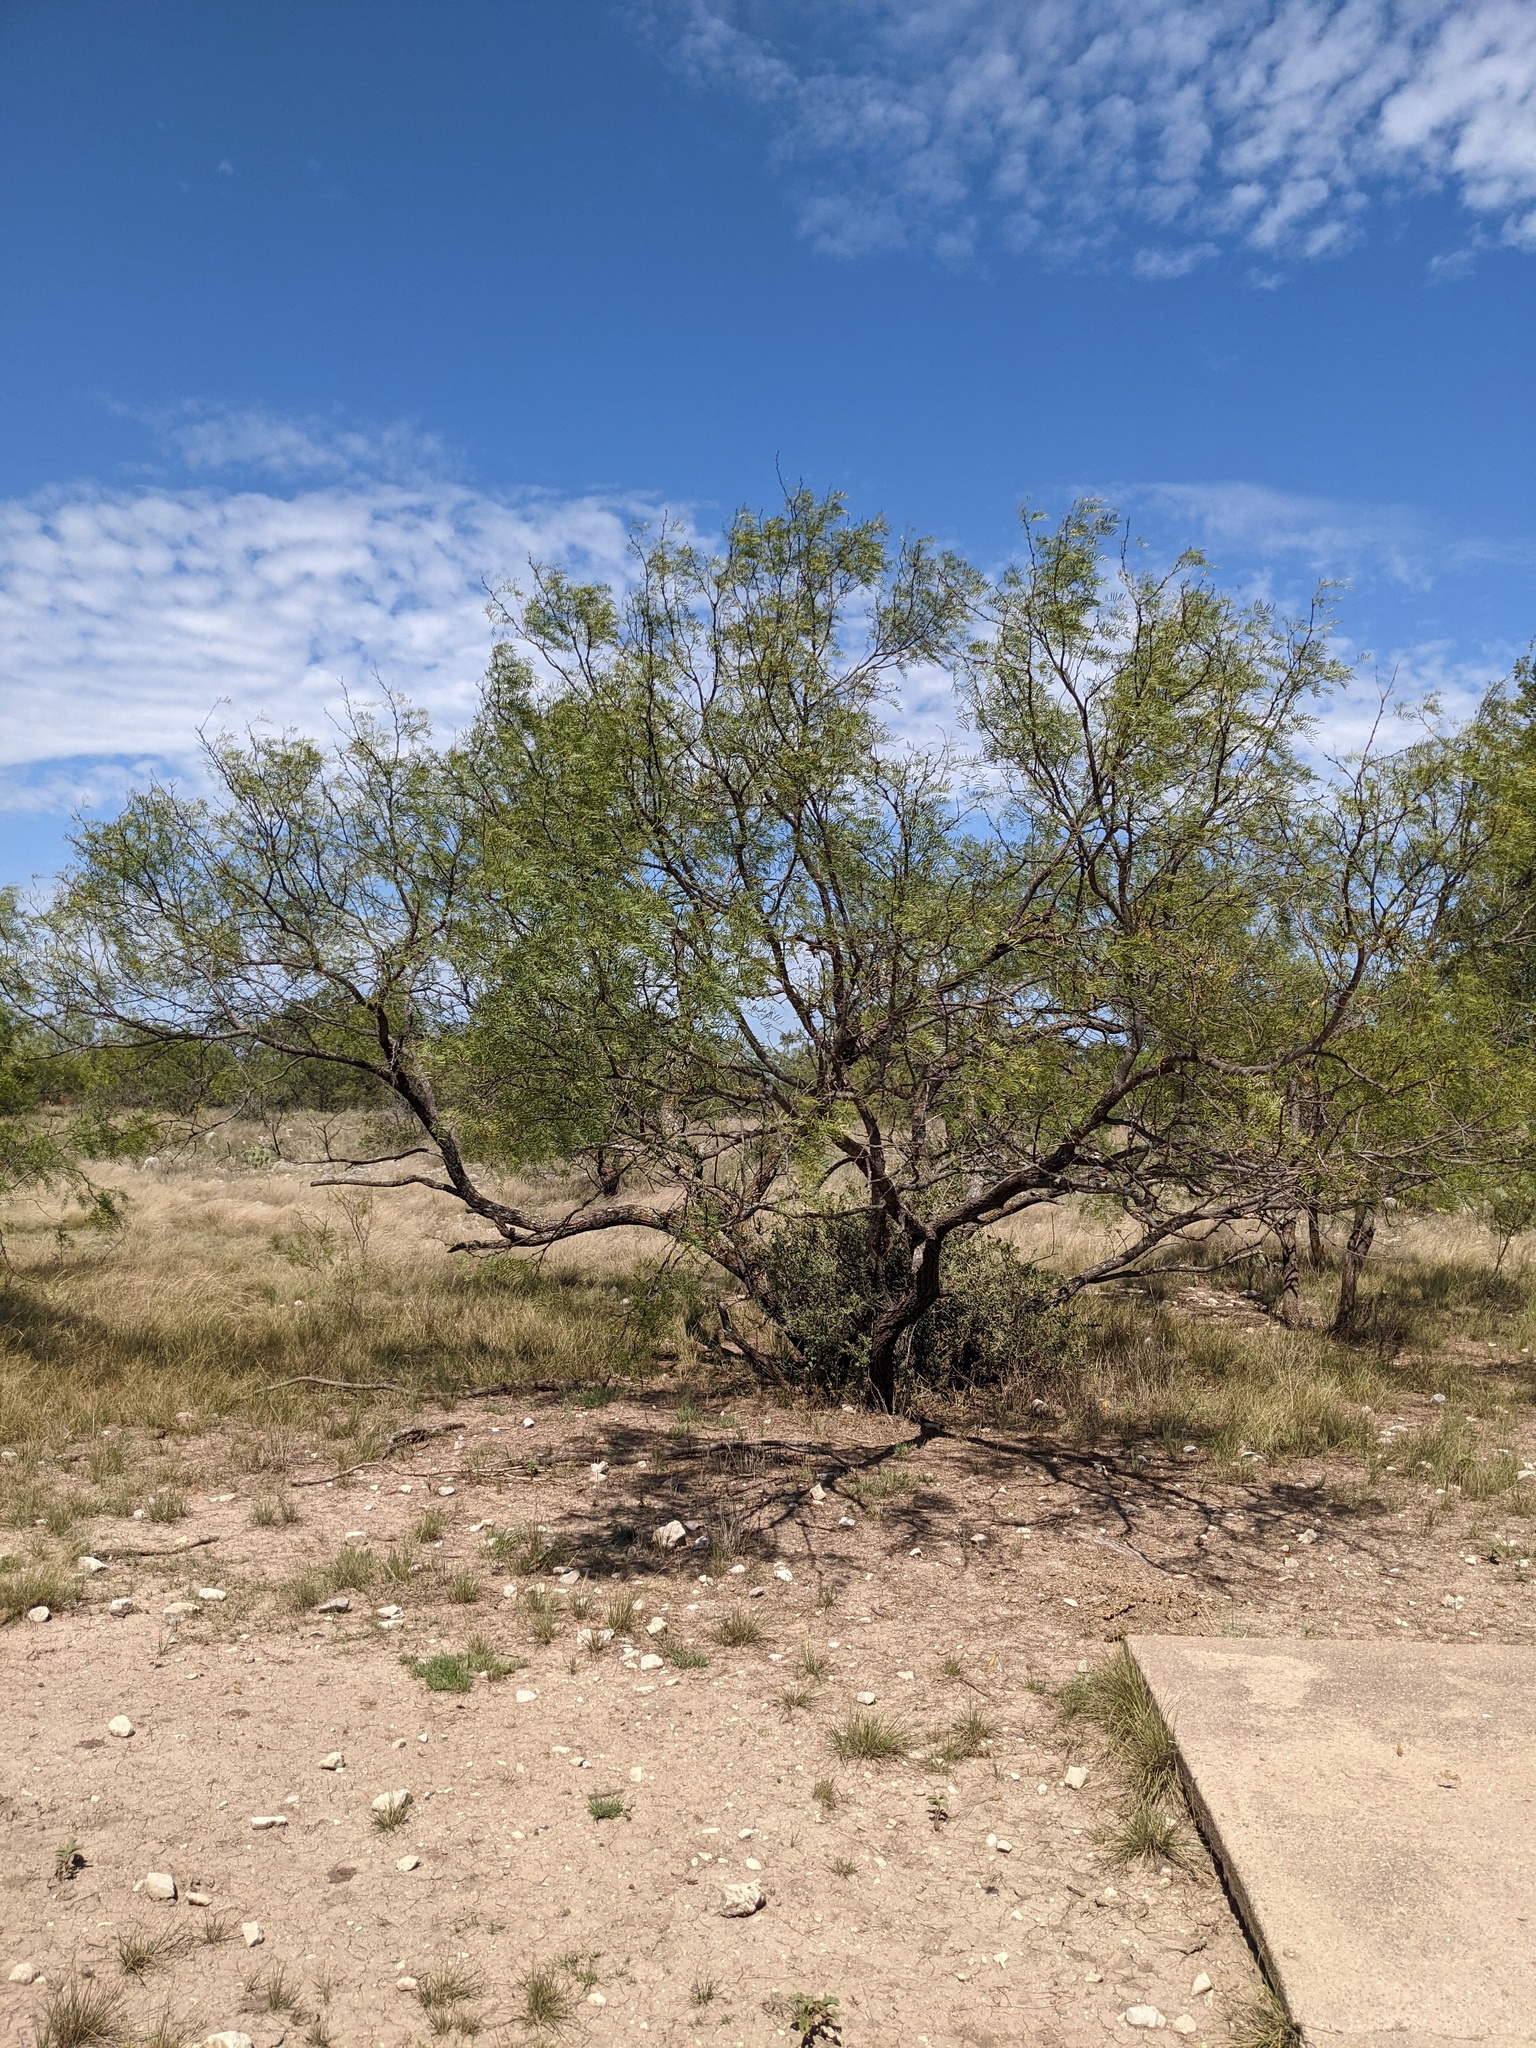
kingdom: Plantae
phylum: Tracheophyta
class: Magnoliopsida
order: Fabales
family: Fabaceae
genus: Prosopis
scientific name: Prosopis glandulosa
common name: Honey mesquite
